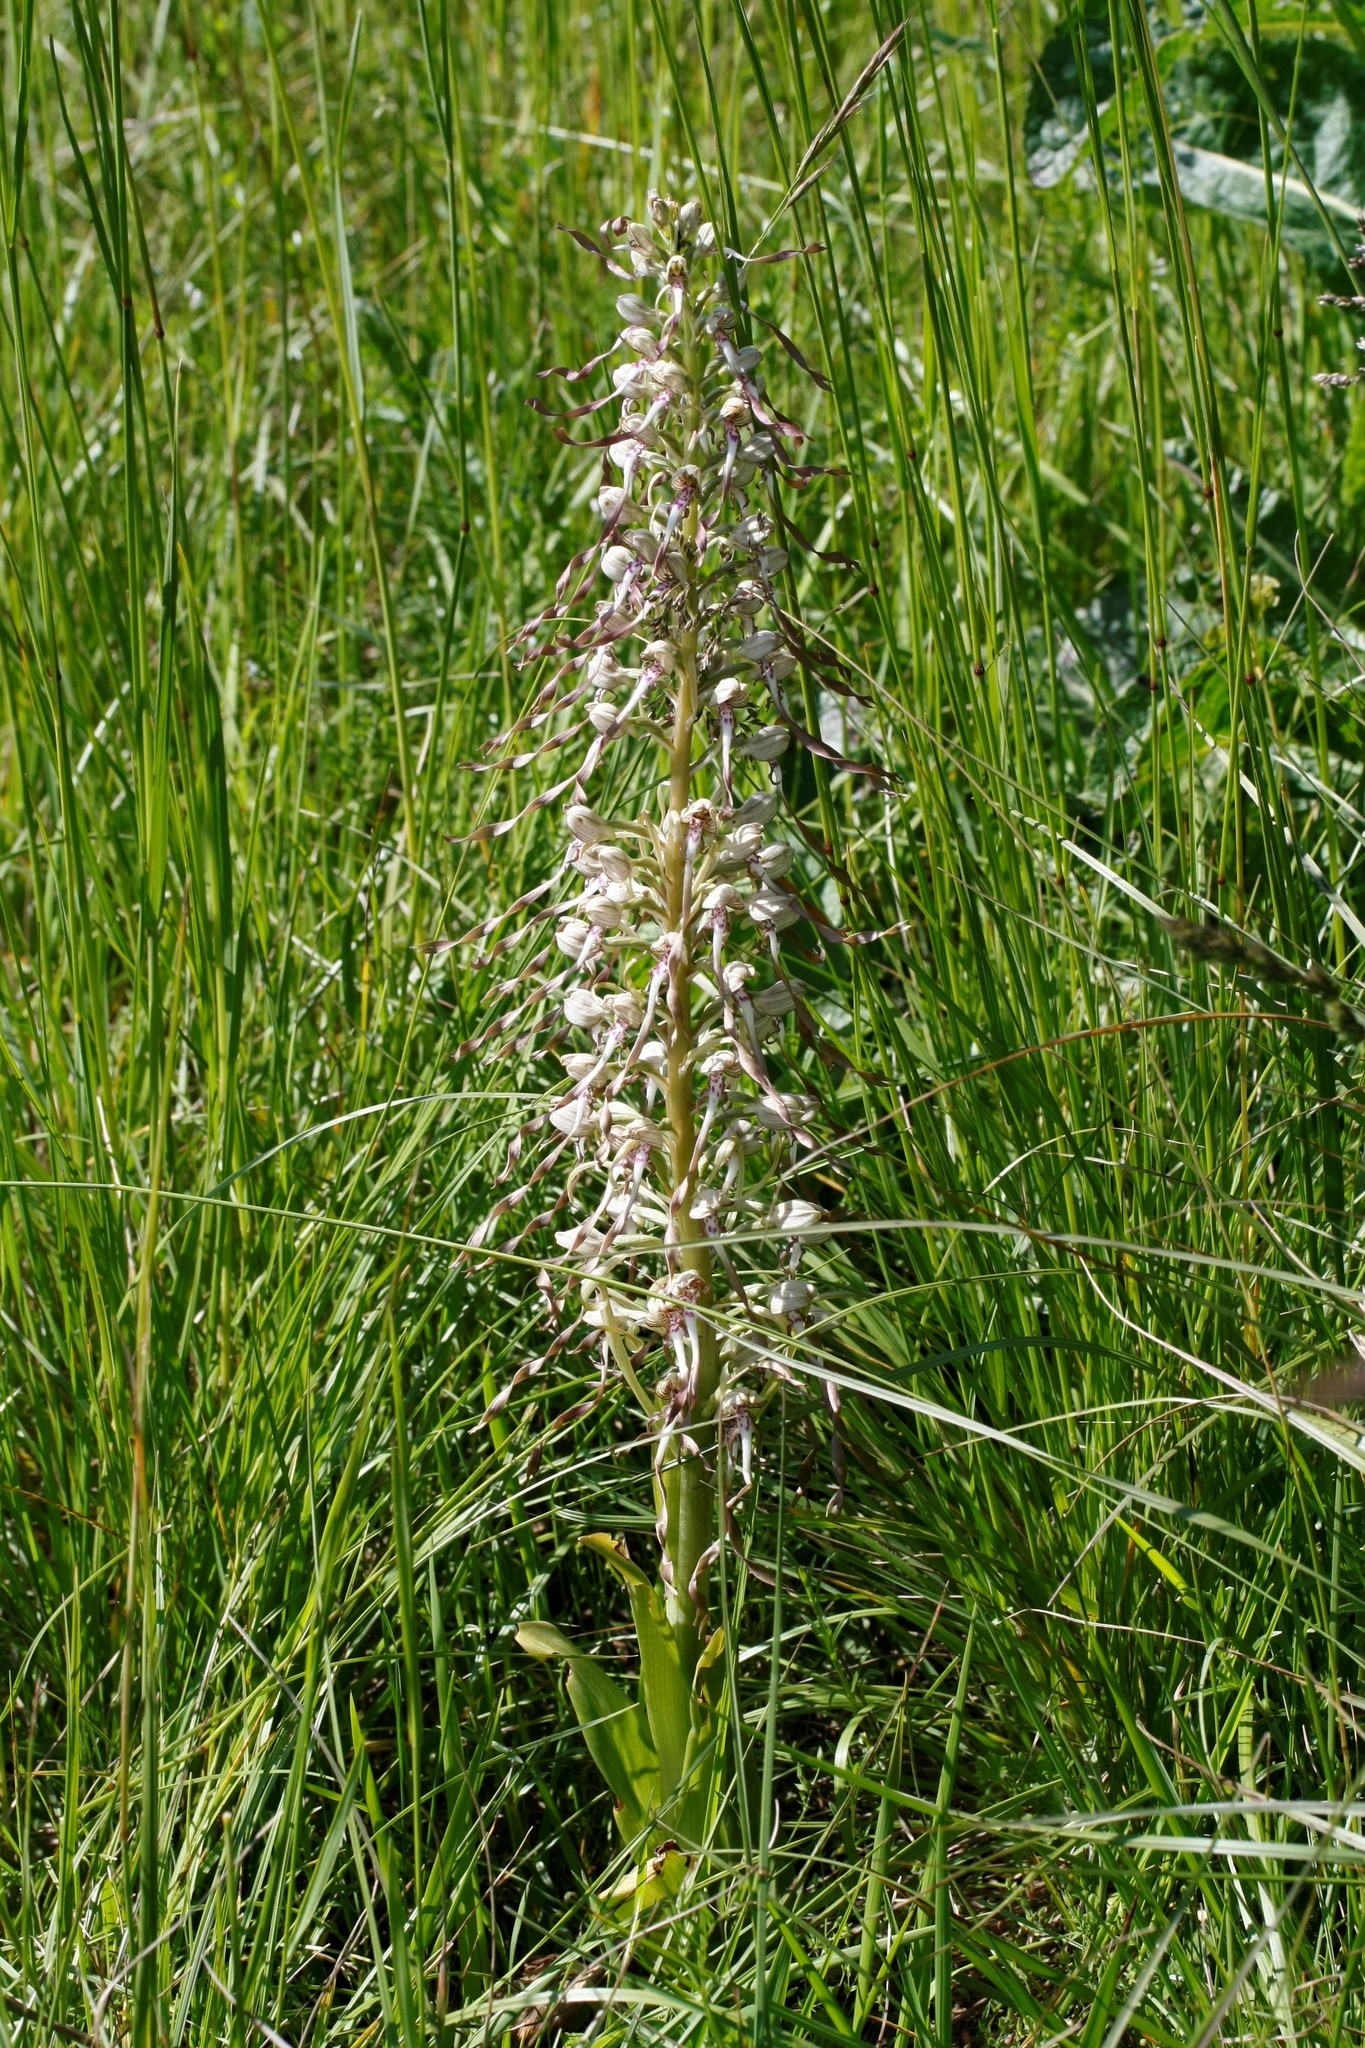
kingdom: Plantae
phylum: Tracheophyta
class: Liliopsida
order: Asparagales
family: Orchidaceae
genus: Himantoglossum
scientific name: Himantoglossum hircinum
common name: Lizard orchid
